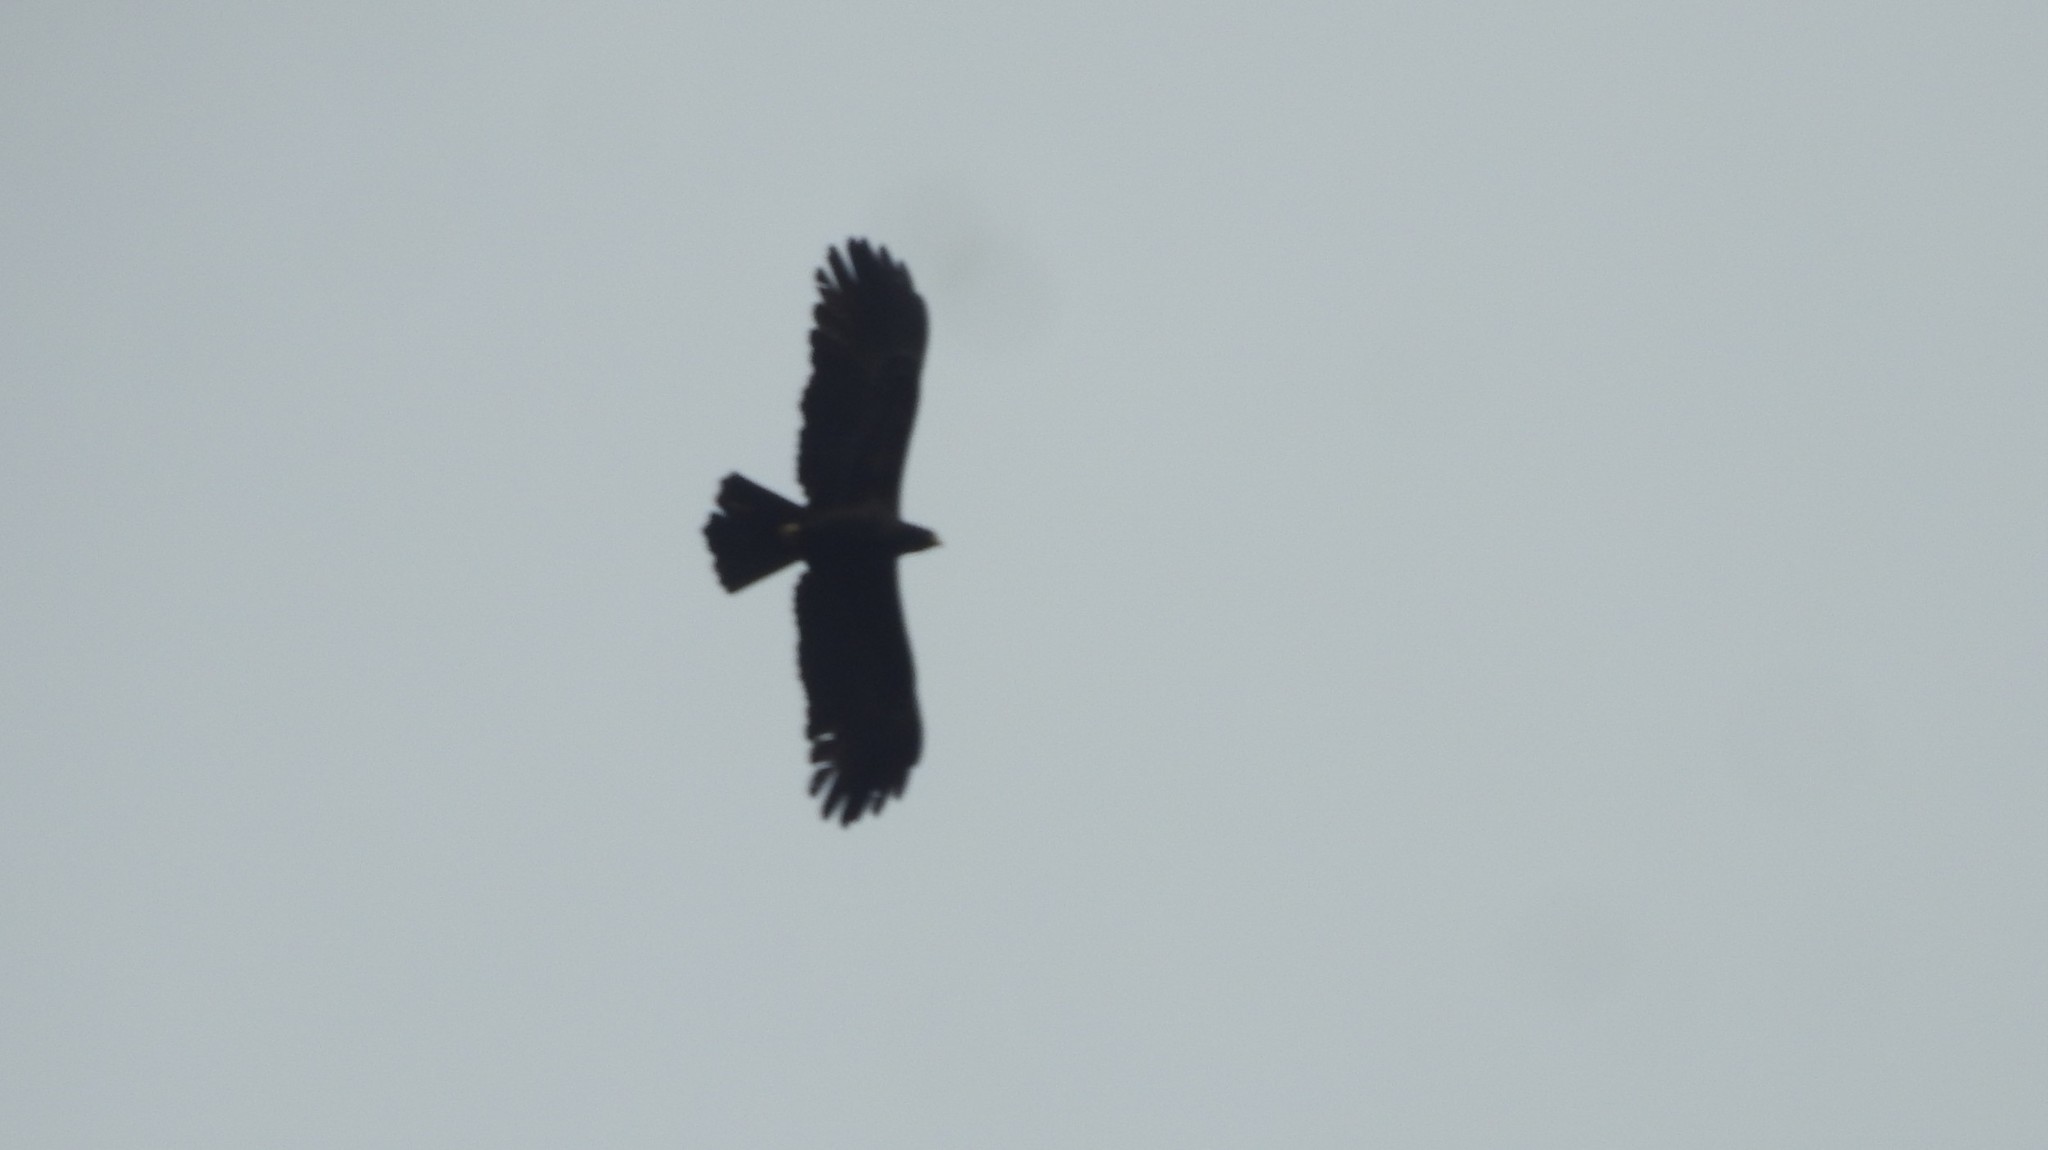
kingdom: Animalia
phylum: Chordata
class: Aves
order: Accipitriformes
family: Accipitridae
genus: Ictinaetus
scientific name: Ictinaetus malayensis
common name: Black eagle
